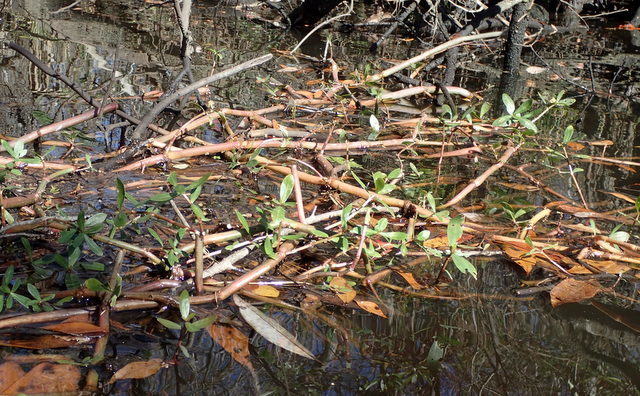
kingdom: Plantae
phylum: Tracheophyta
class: Magnoliopsida
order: Caryophyllales
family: Amaranthaceae
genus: Alternanthera
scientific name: Alternanthera philoxeroides
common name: Alligatorweed
